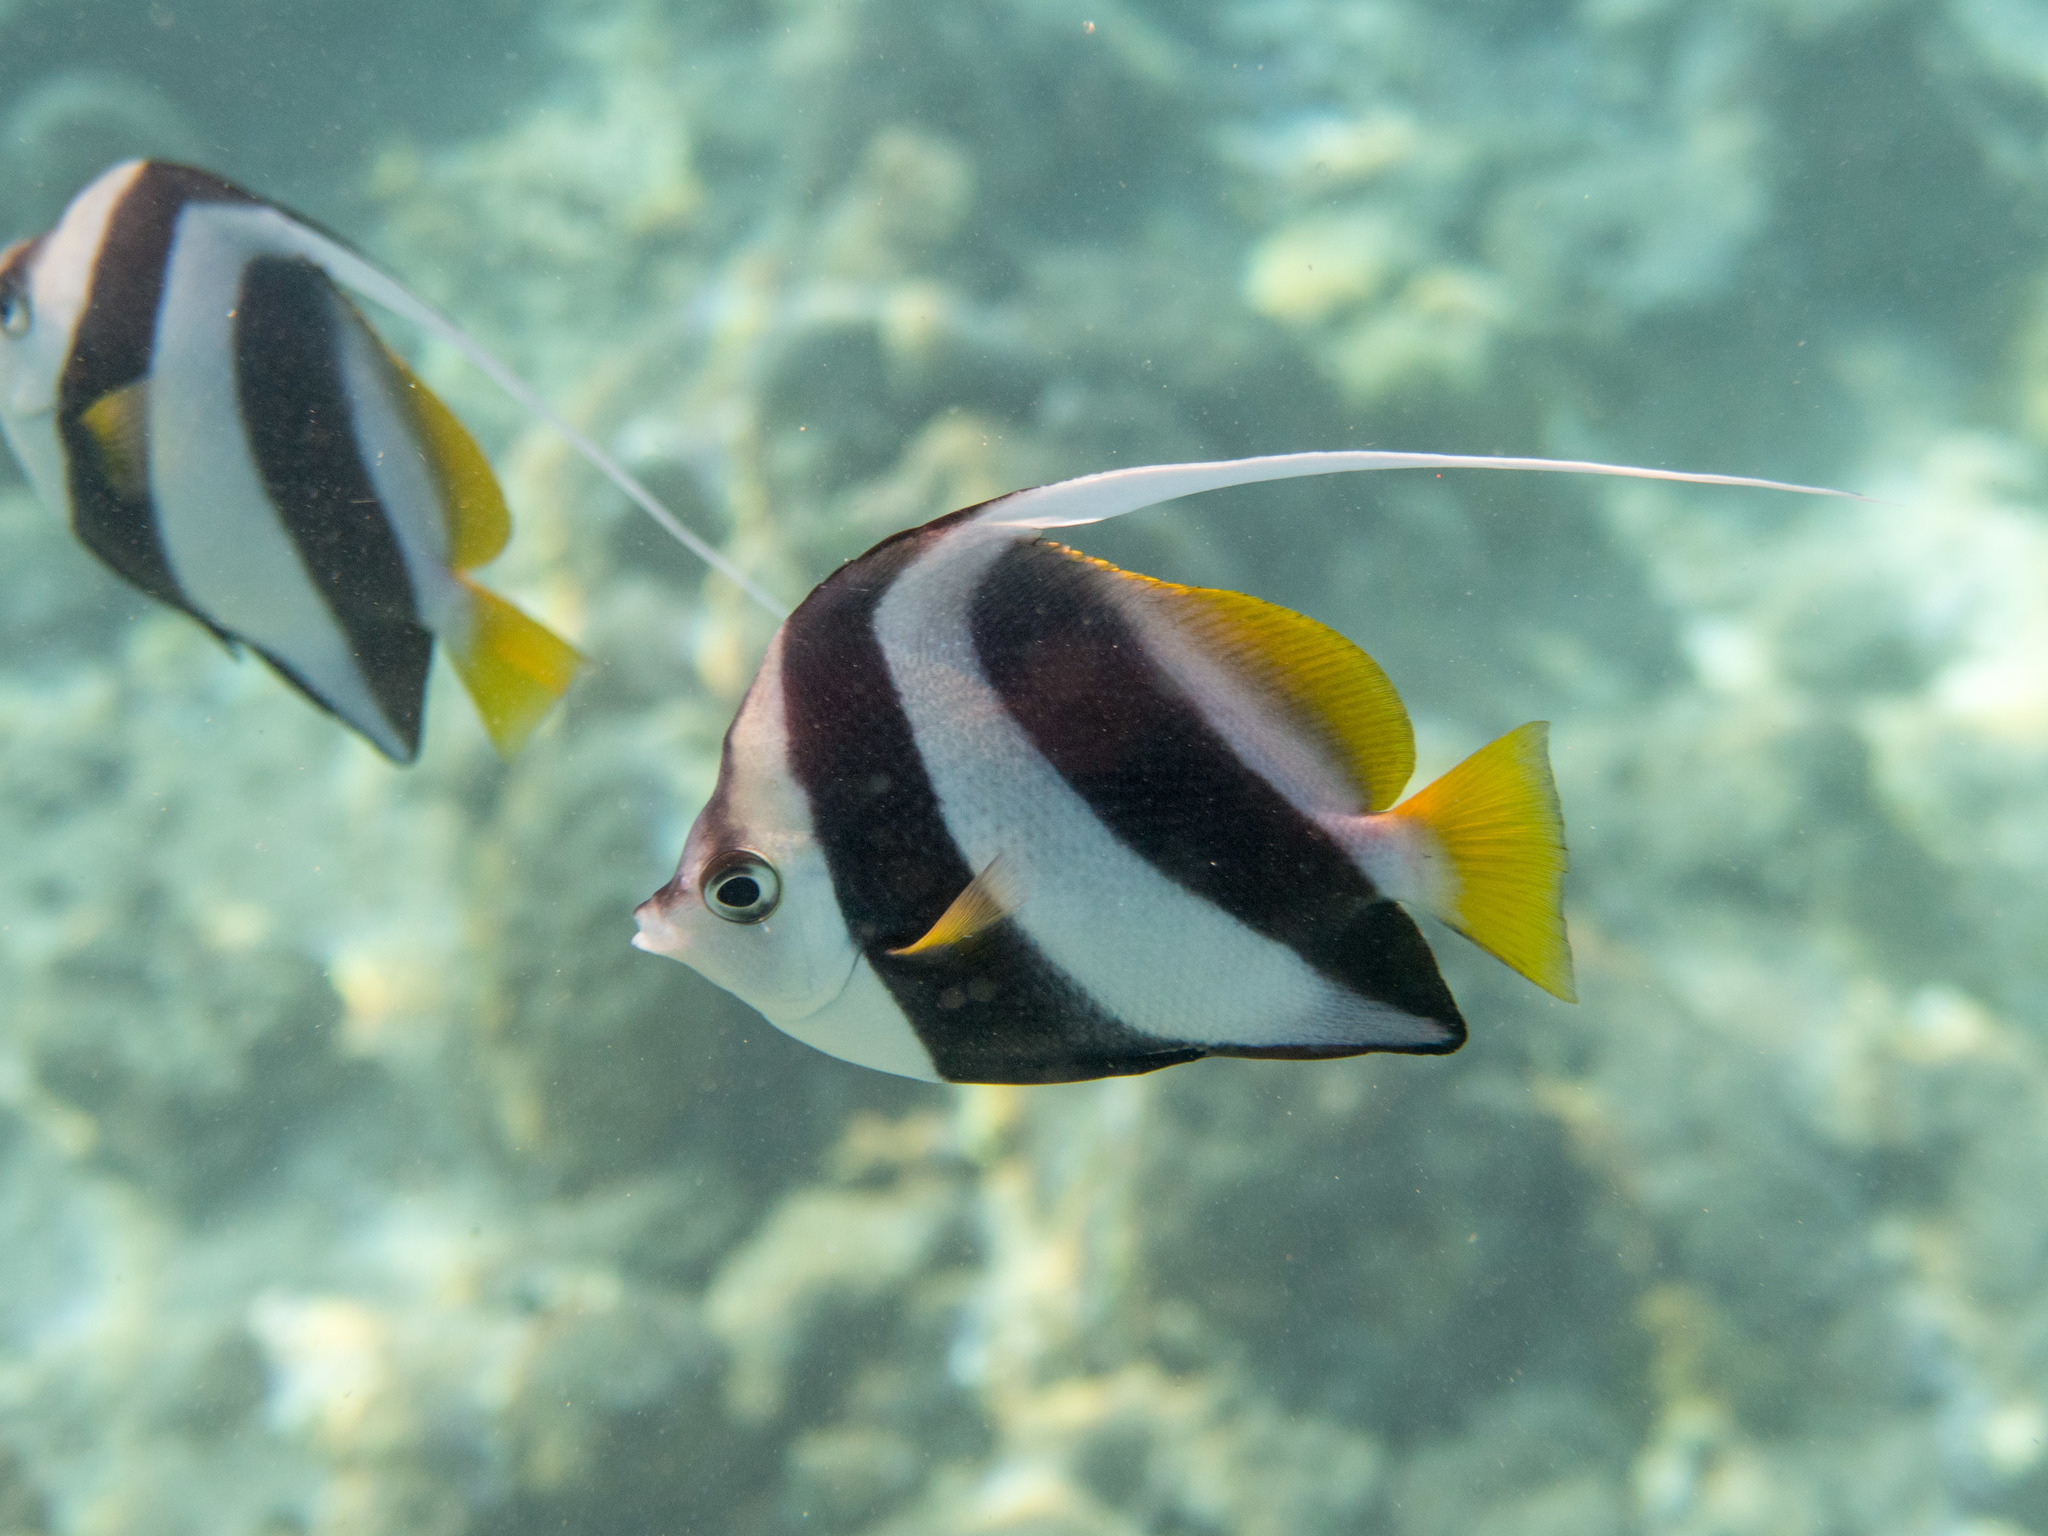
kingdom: Animalia
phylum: Chordata
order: Perciformes
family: Chaetodontidae
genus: Heniochus
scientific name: Heniochus diphreutes
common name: Pennantfish
